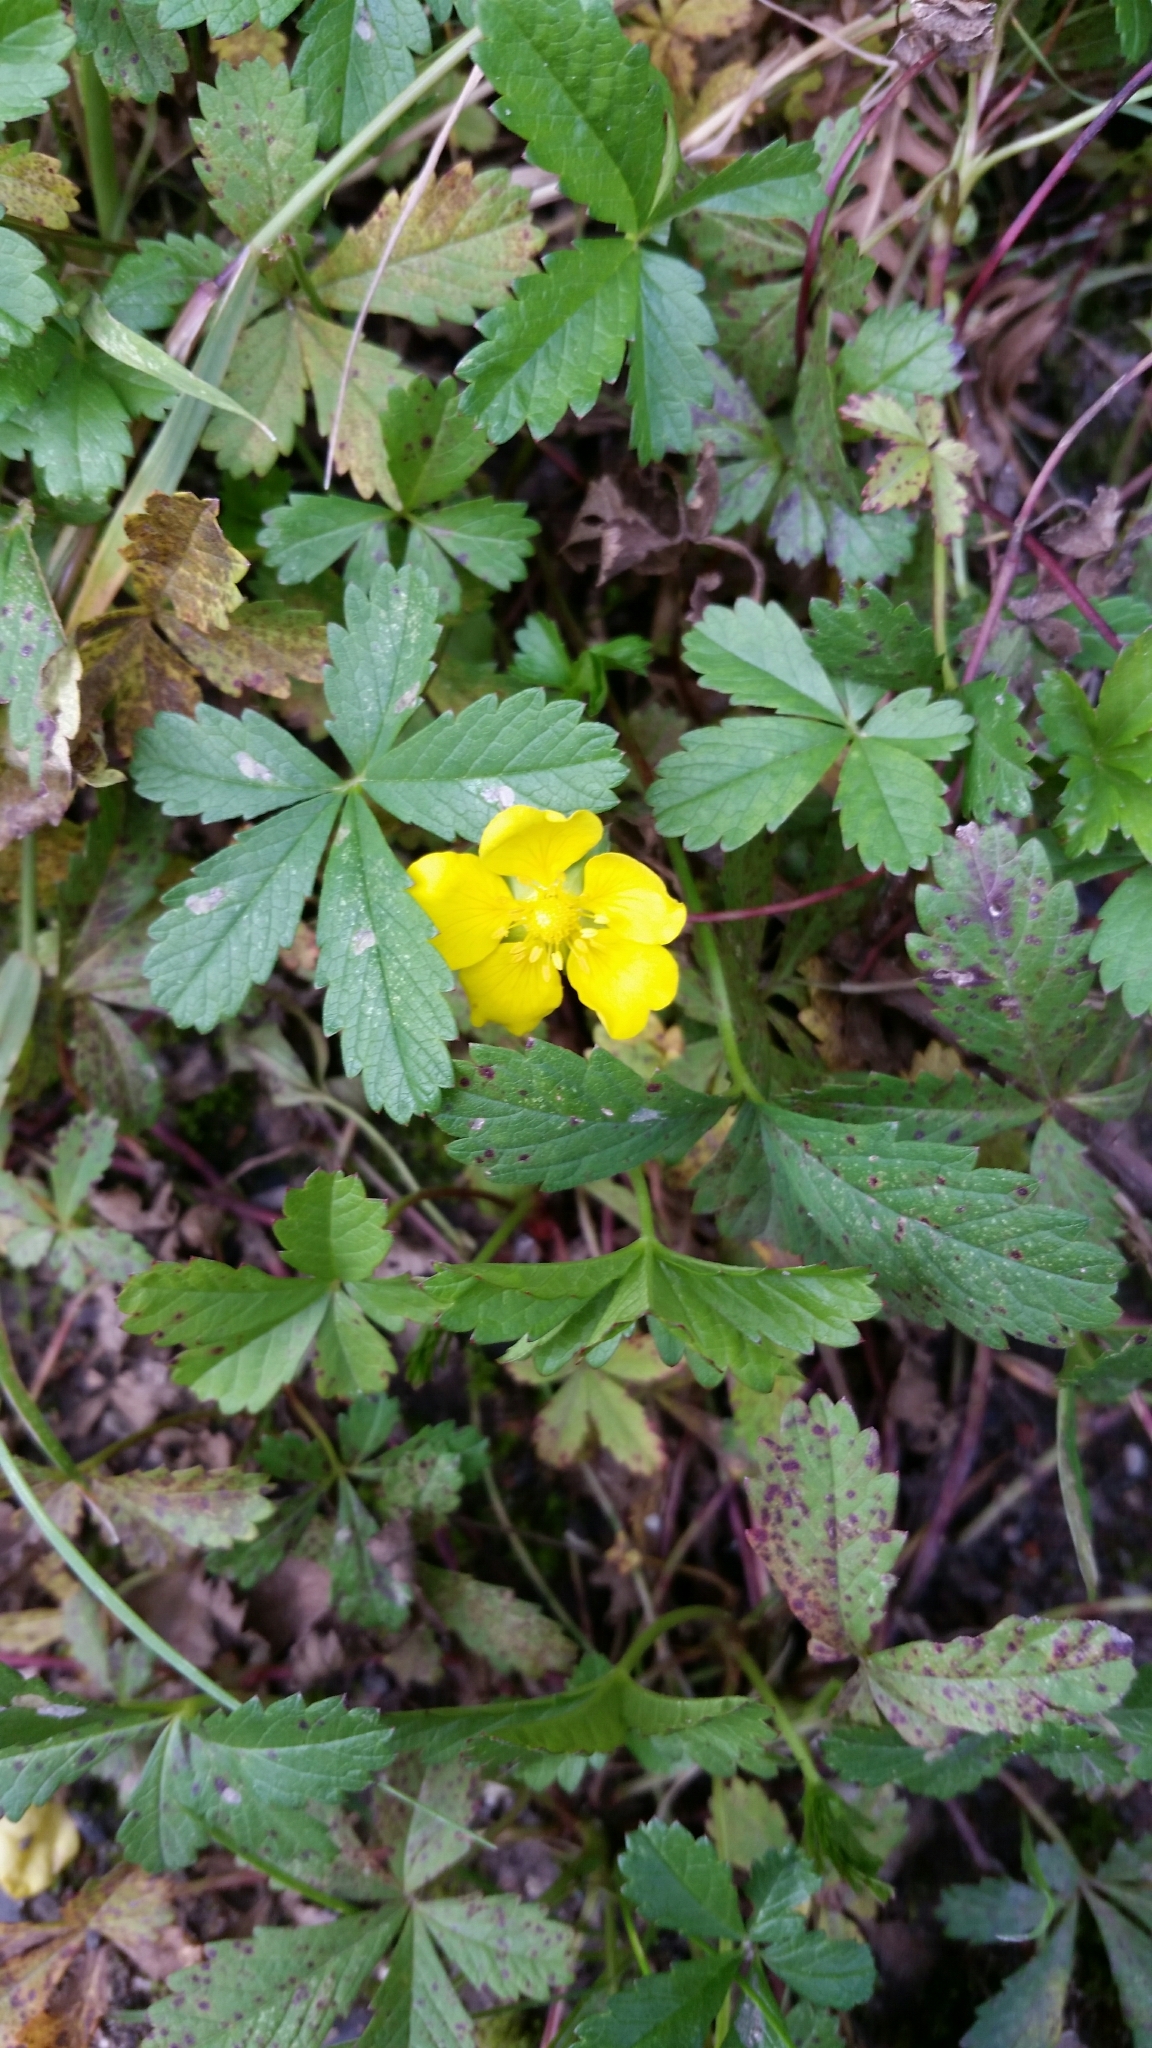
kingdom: Plantae
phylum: Tracheophyta
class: Magnoliopsida
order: Rosales
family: Rosaceae
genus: Potentilla
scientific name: Potentilla reptans
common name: Creeping cinquefoil
